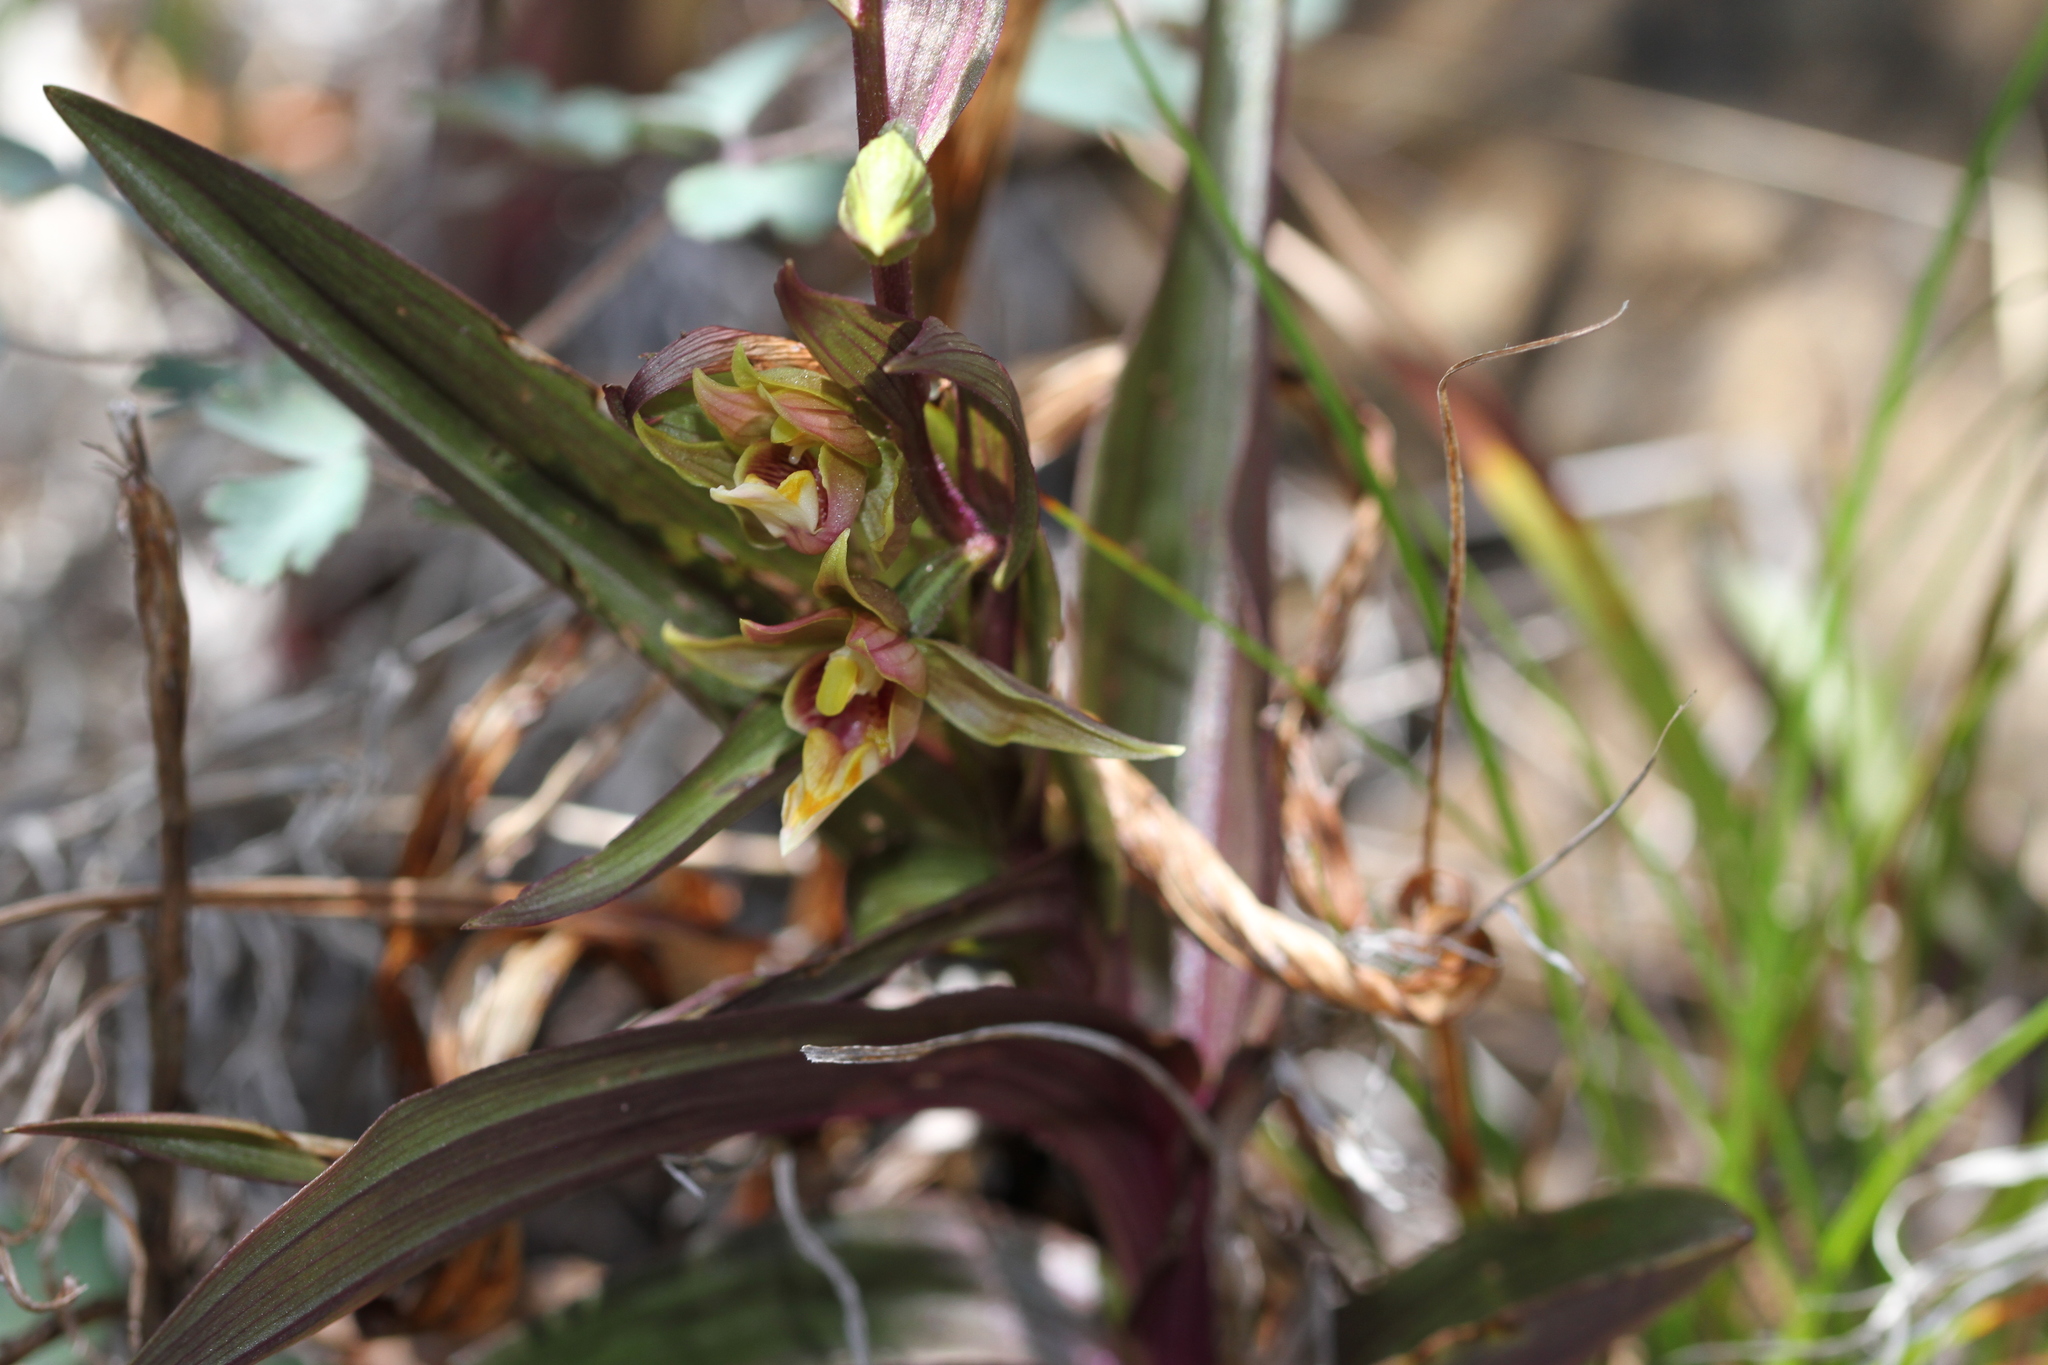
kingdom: Plantae
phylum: Tracheophyta
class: Liliopsida
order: Asparagales
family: Orchidaceae
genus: Epipactis
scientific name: Epipactis gigantea
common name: Chatterbox
